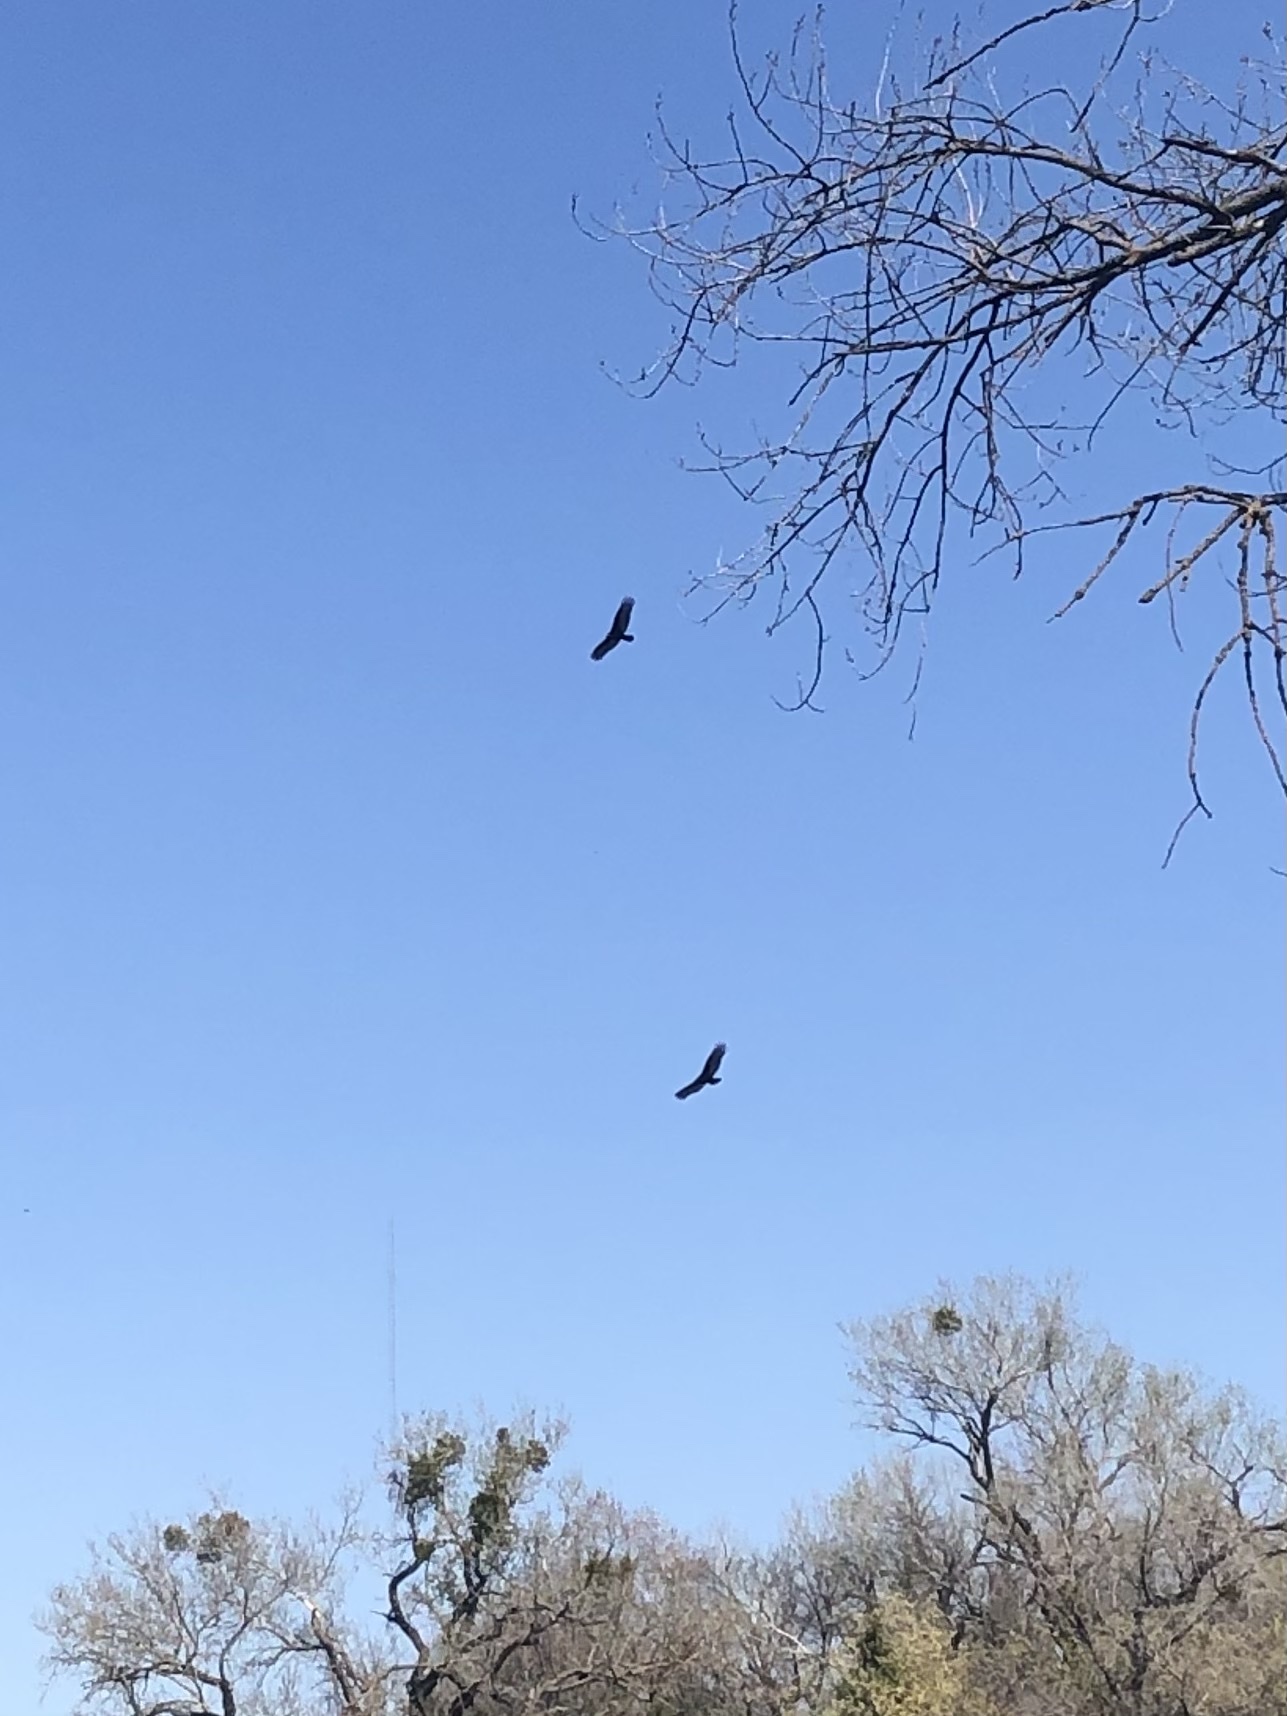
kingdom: Animalia
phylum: Chordata
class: Aves
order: Accipitriformes
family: Cathartidae
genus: Cathartes
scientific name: Cathartes aura
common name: Turkey vulture
